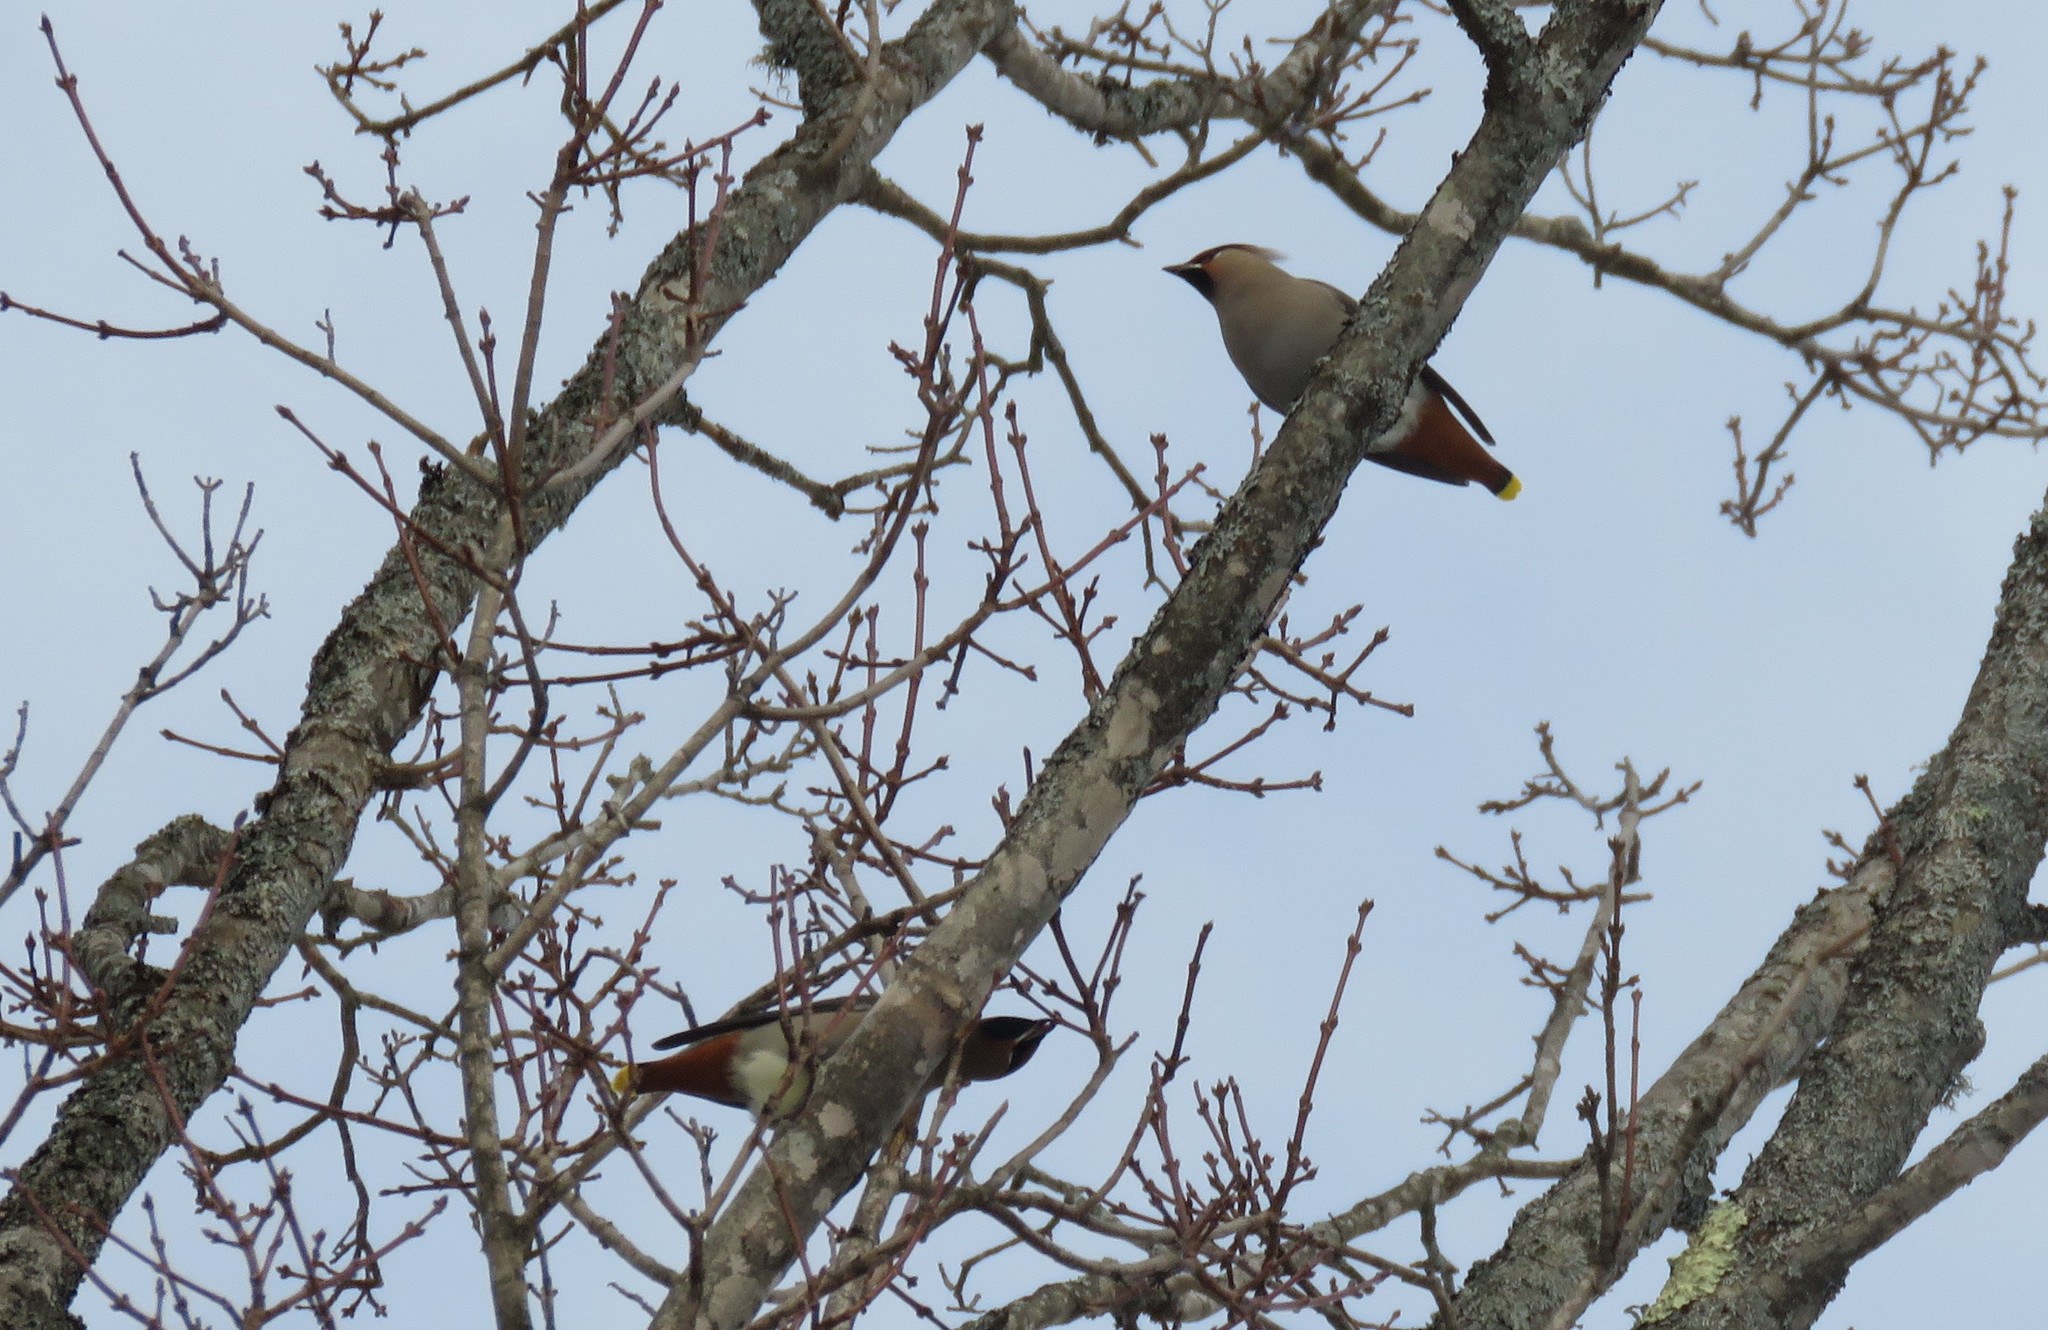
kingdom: Animalia
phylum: Chordata
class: Aves
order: Passeriformes
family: Bombycillidae
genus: Bombycilla
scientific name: Bombycilla garrulus
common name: Bohemian waxwing
